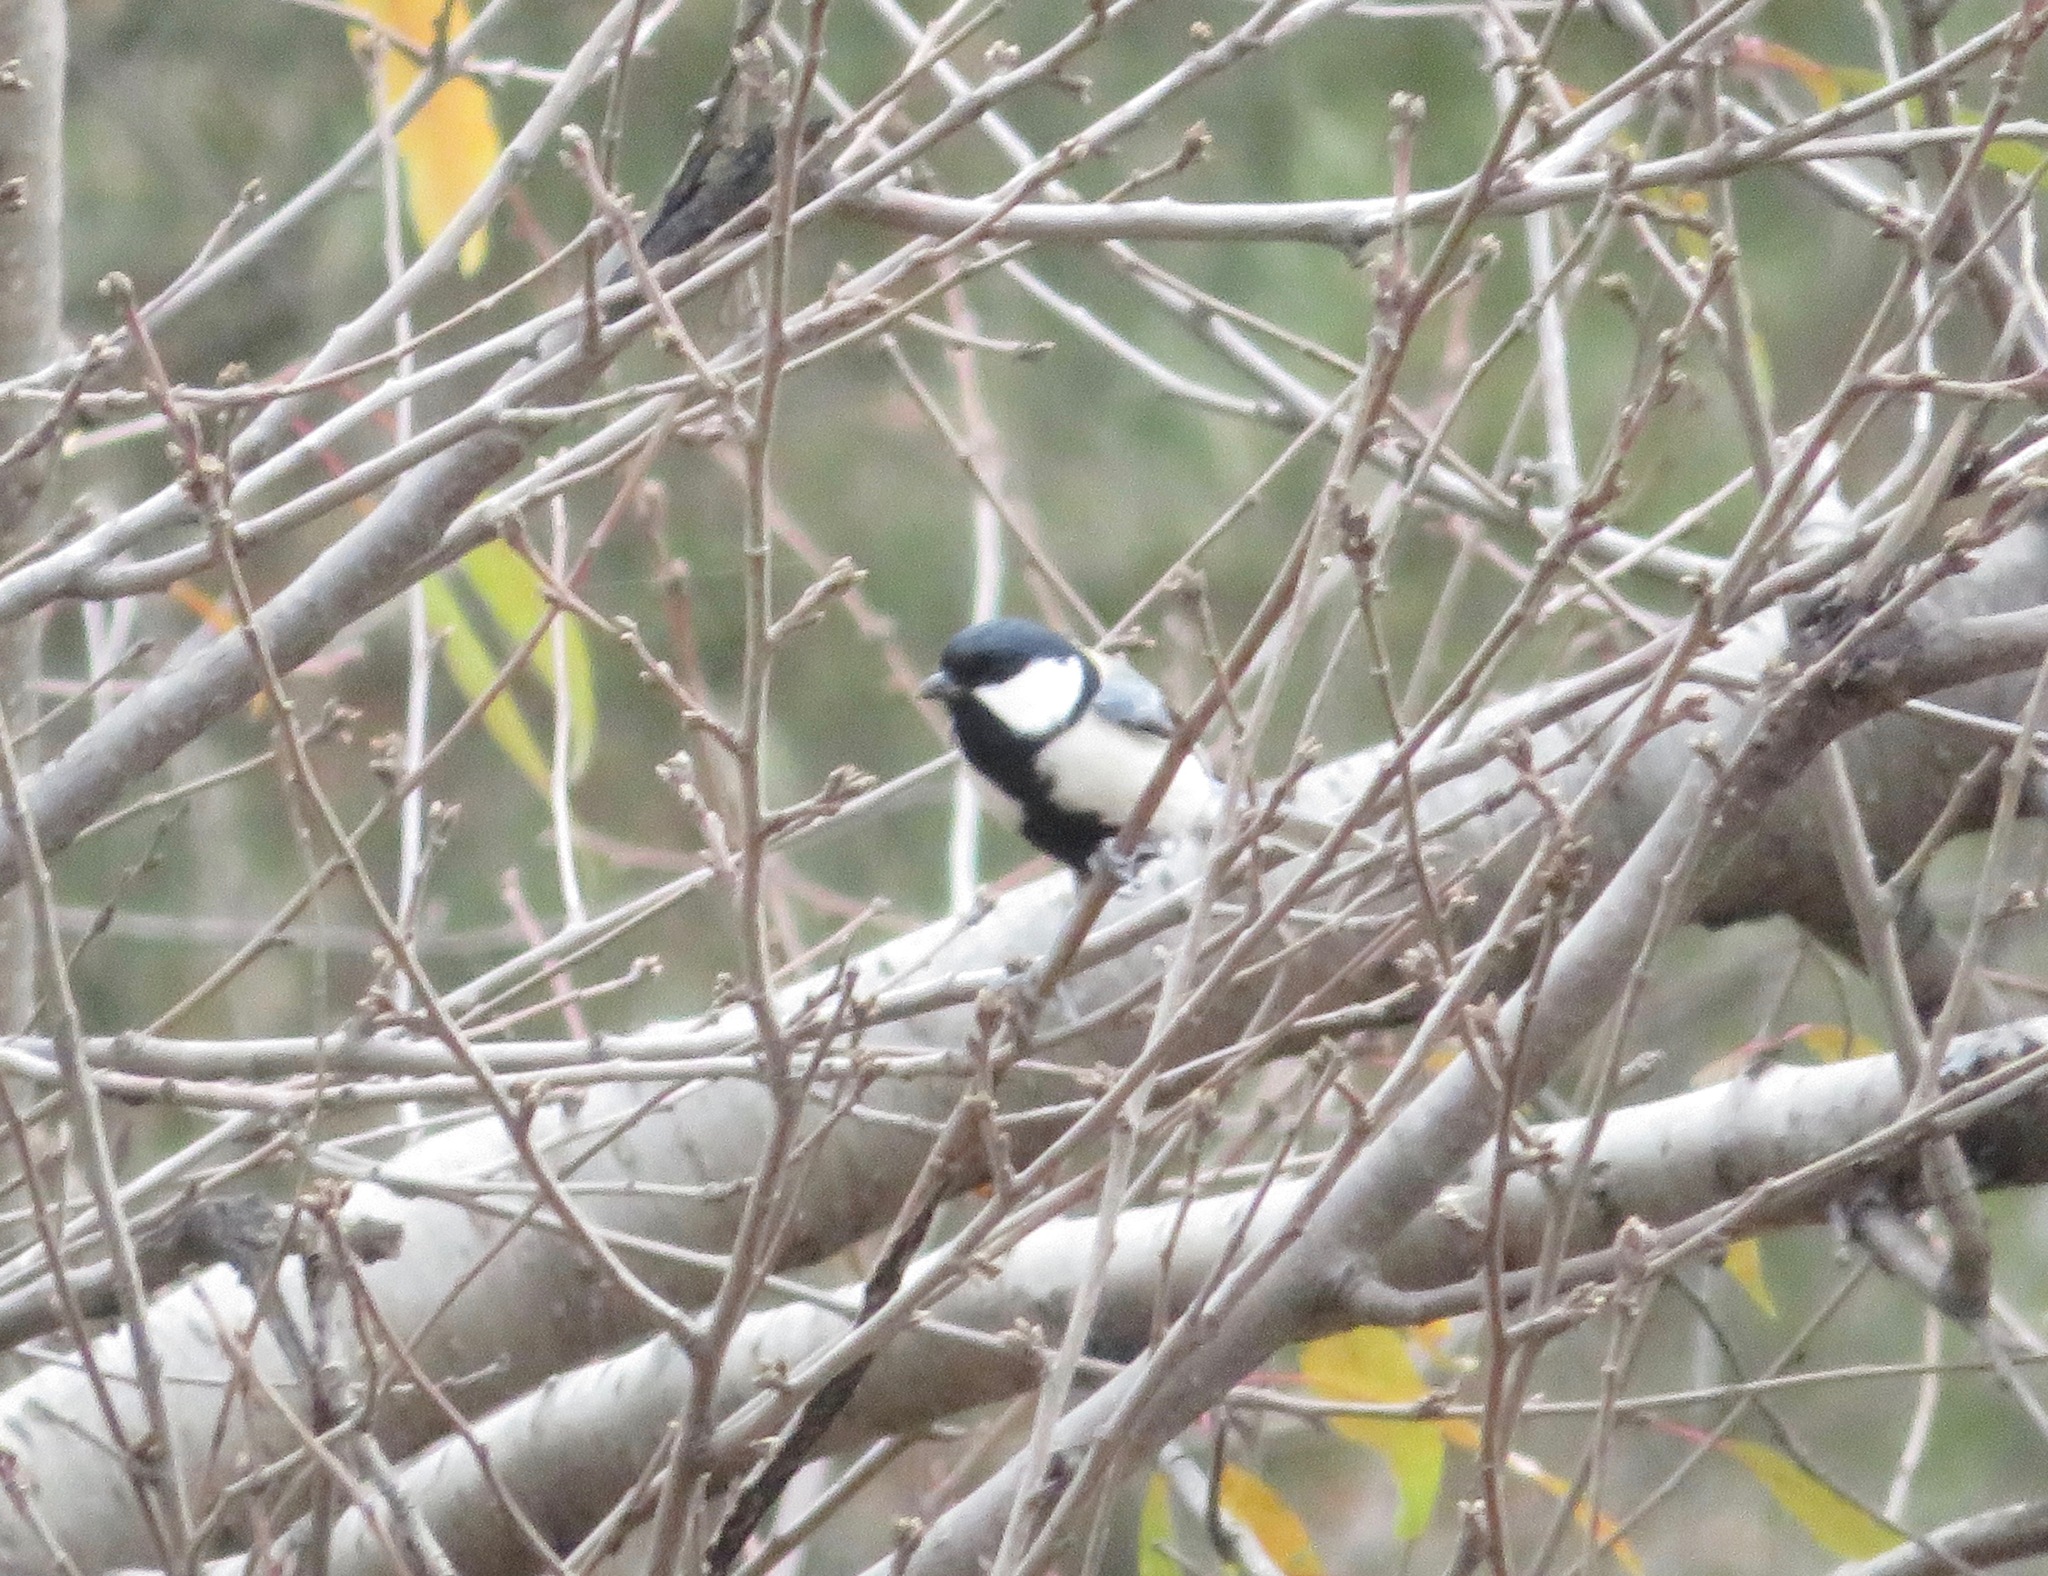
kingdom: Animalia
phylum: Chordata
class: Aves
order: Passeriformes
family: Paridae
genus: Parus
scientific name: Parus minor
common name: Japanese tit
